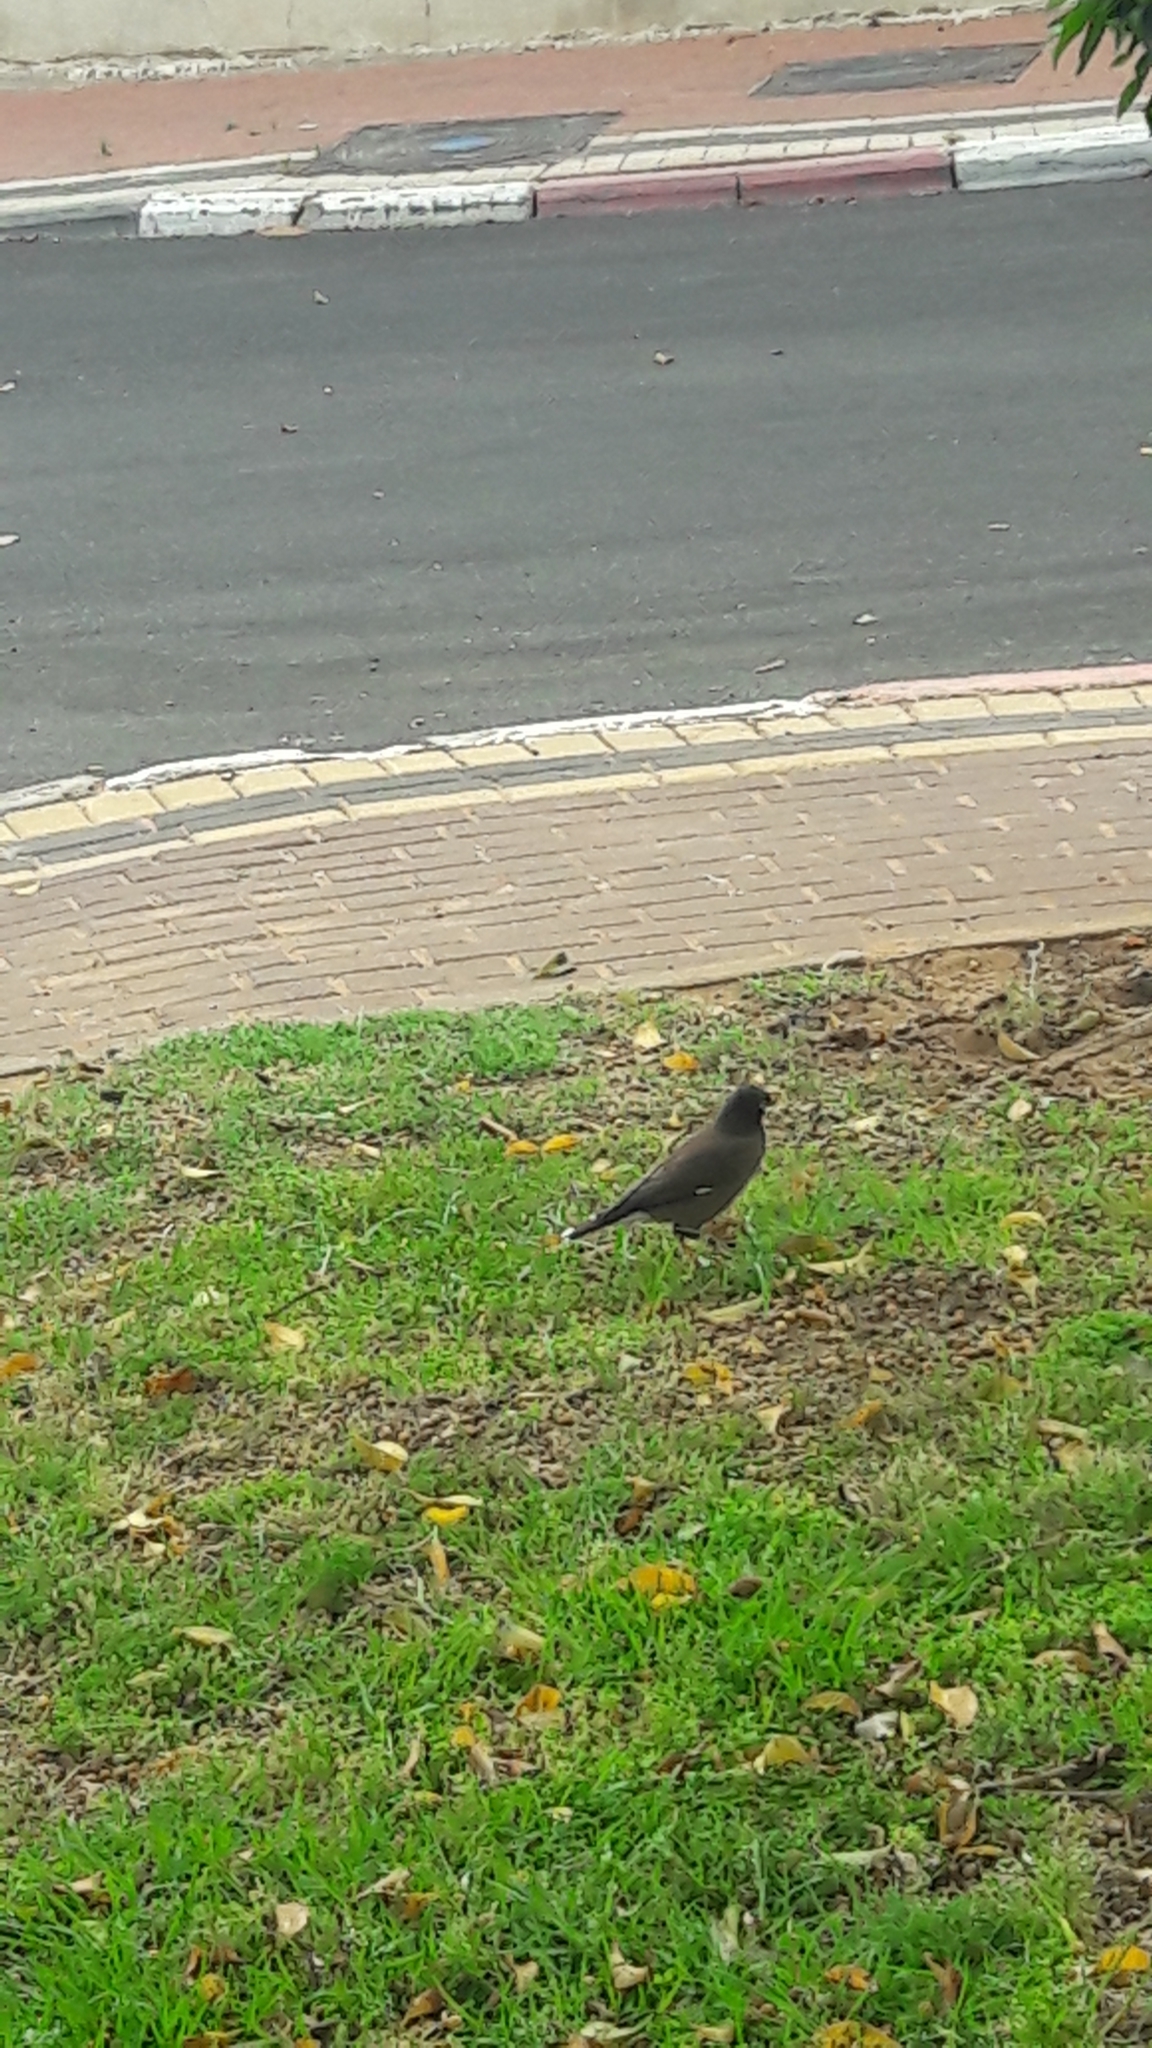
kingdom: Animalia
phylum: Chordata
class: Aves
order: Passeriformes
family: Sturnidae
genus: Acridotheres
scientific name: Acridotheres tristis
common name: Common myna
